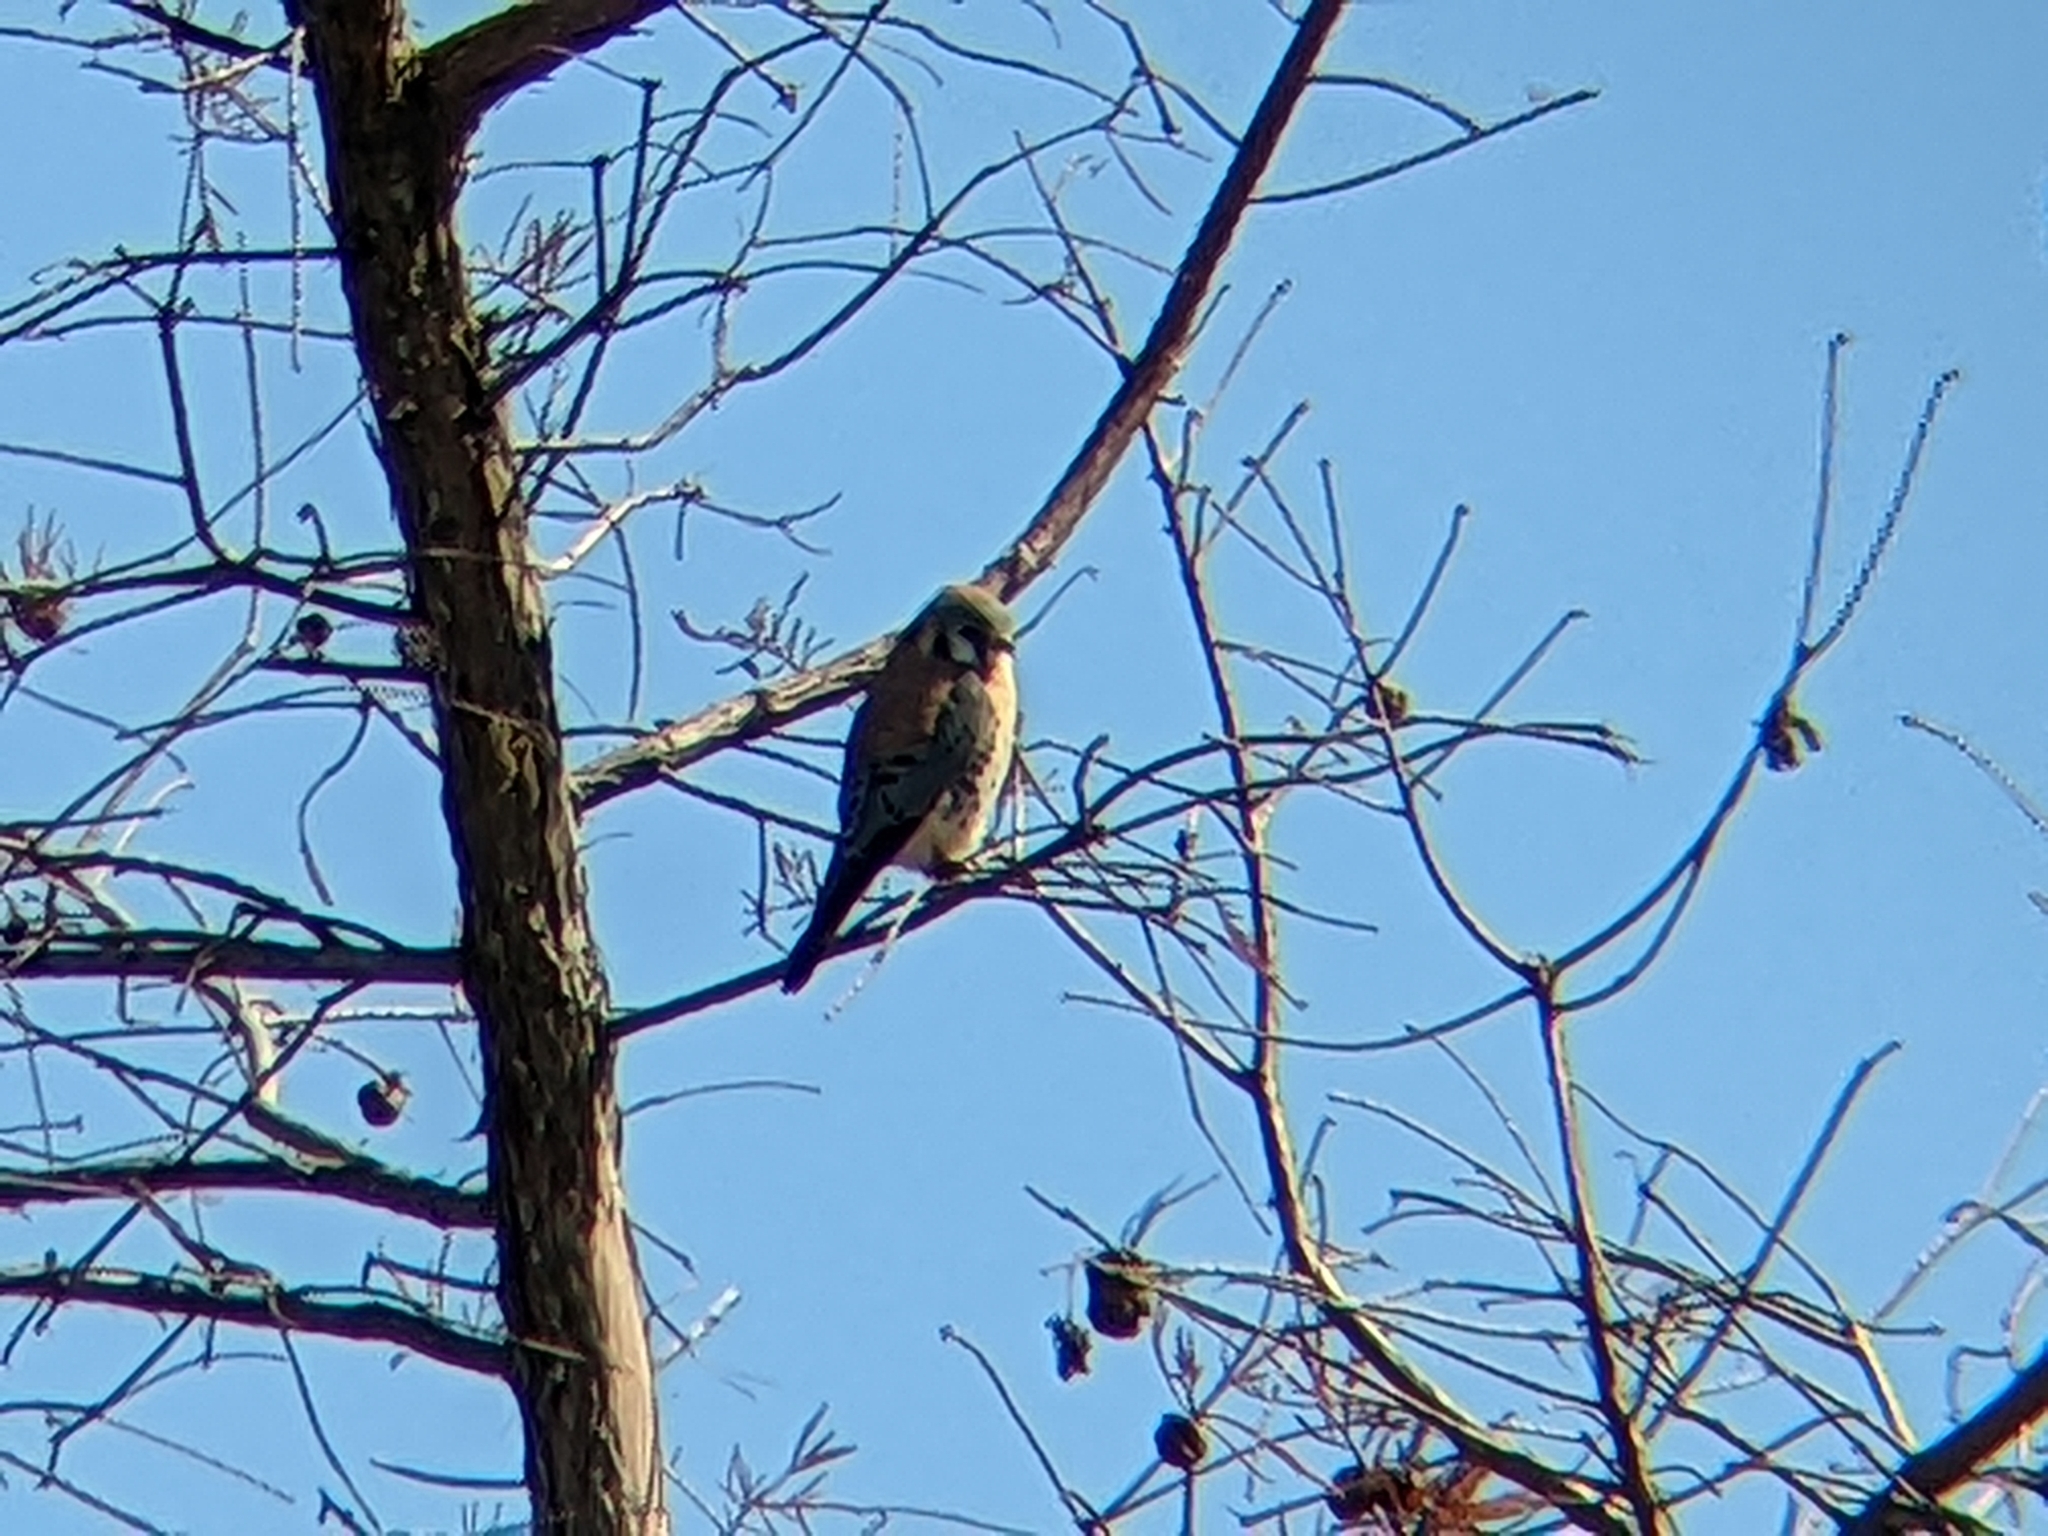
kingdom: Animalia
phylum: Chordata
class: Aves
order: Falconiformes
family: Falconidae
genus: Falco
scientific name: Falco sparverius
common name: American kestrel
